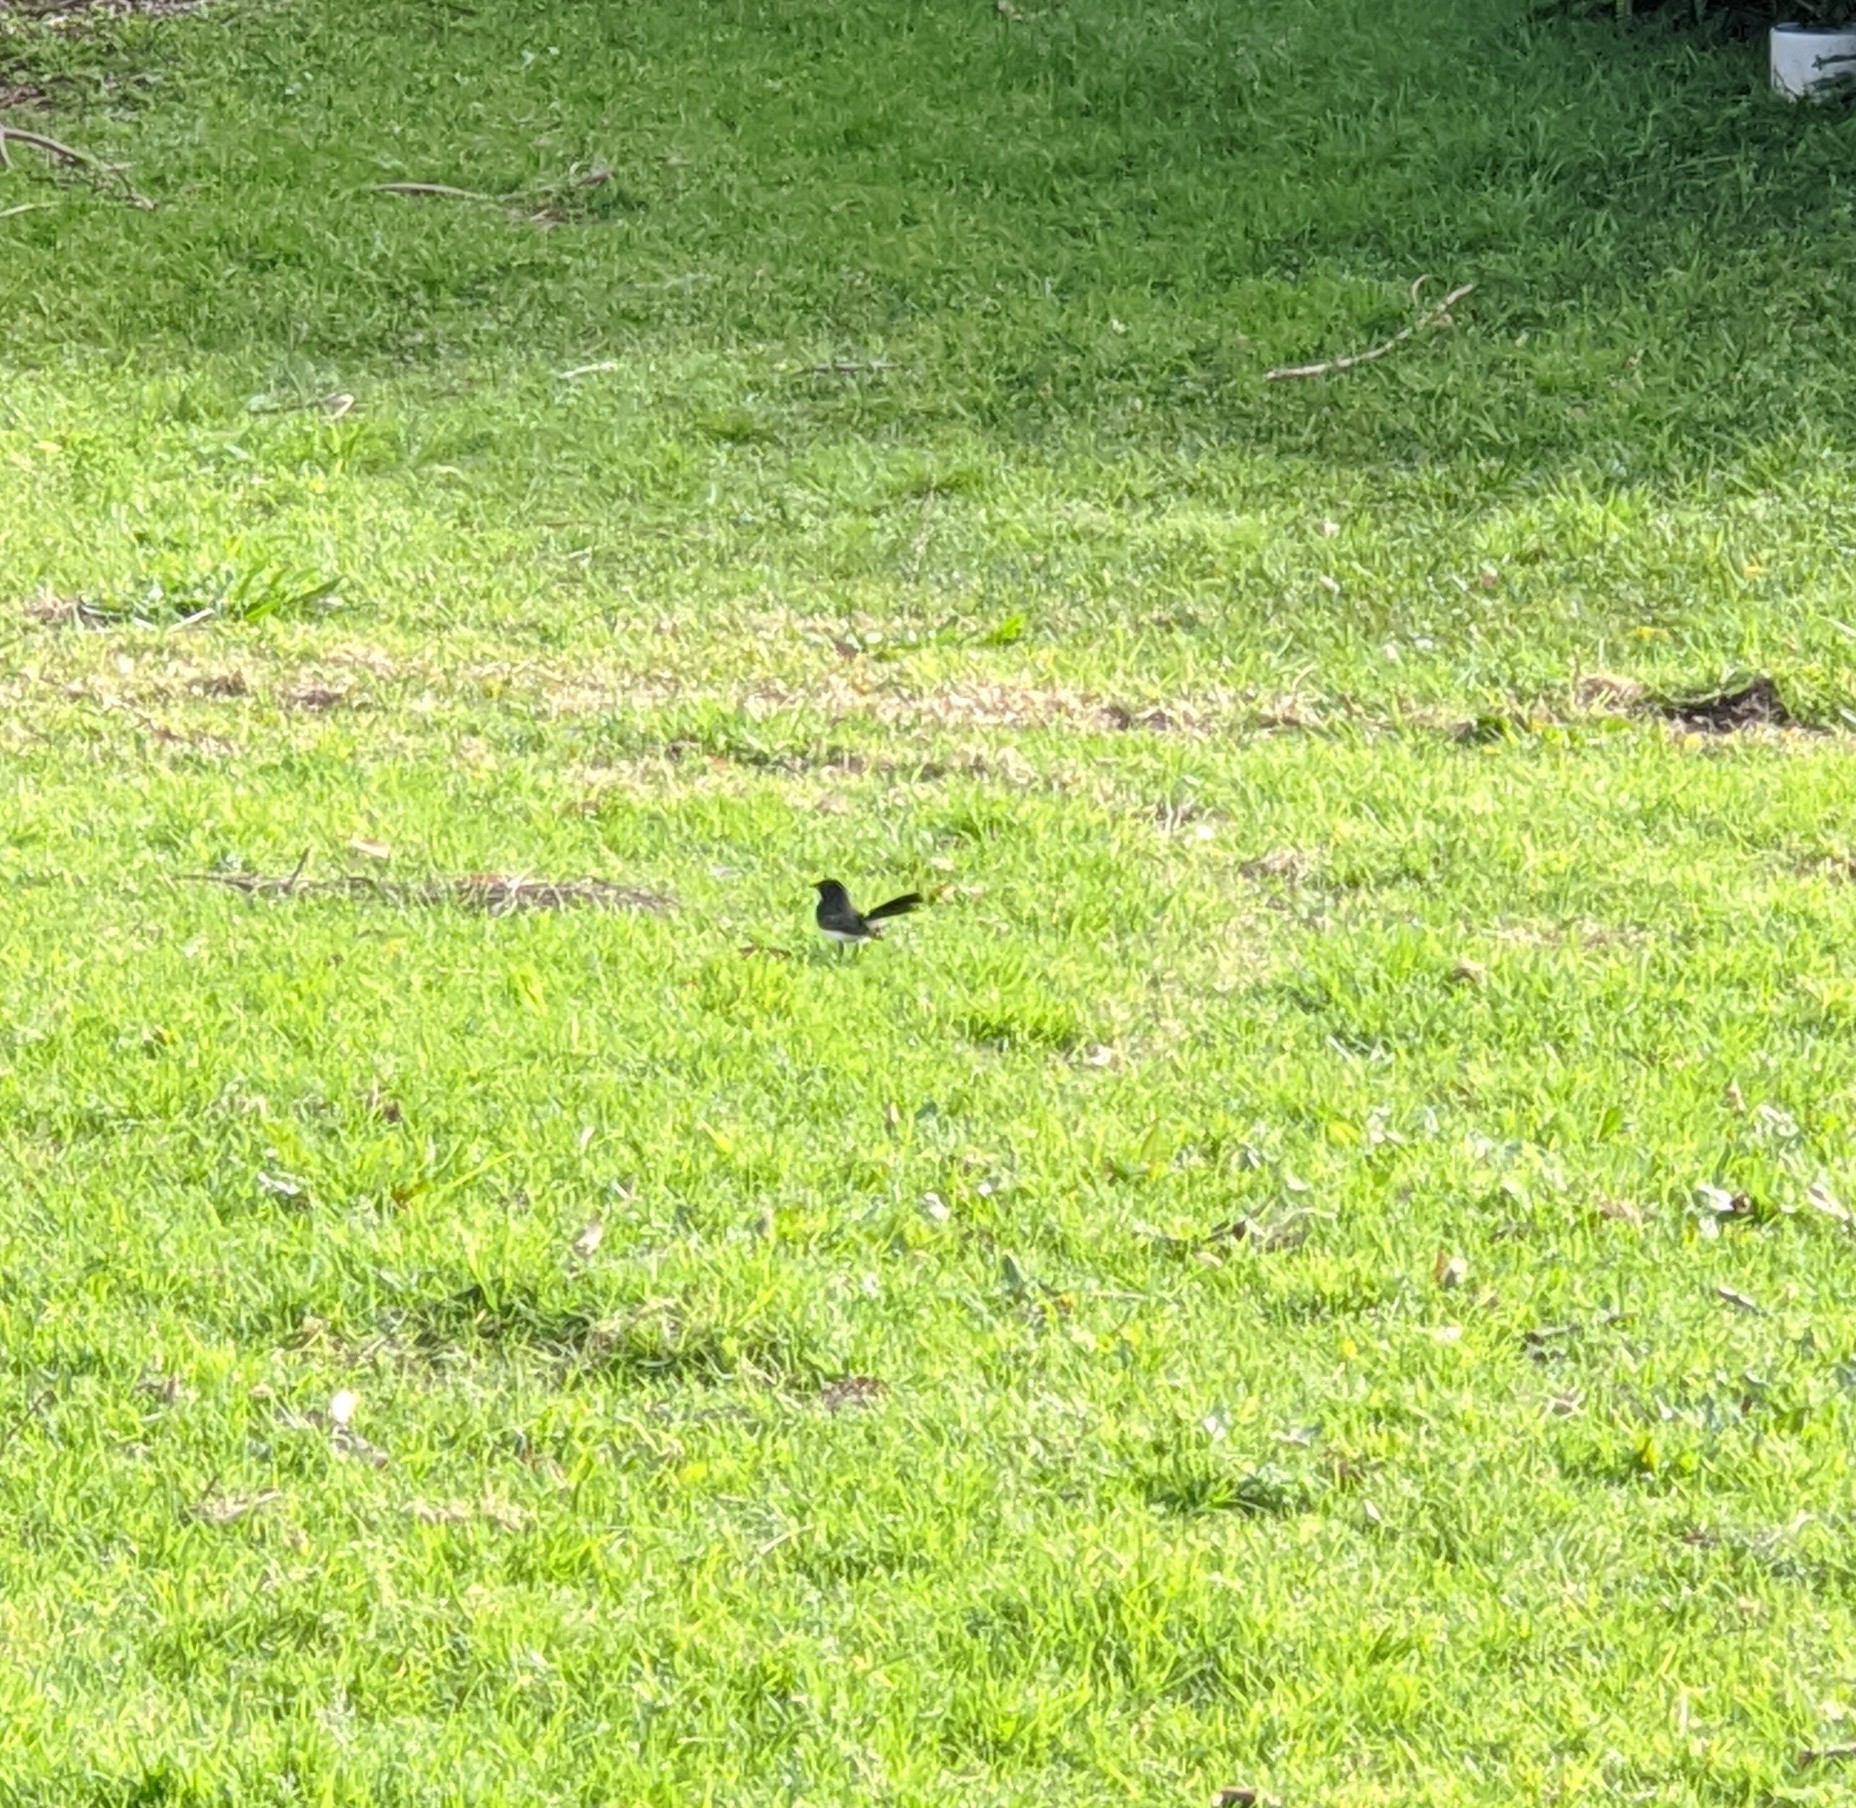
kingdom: Animalia
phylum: Chordata
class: Aves
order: Passeriformes
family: Rhipiduridae
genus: Rhipidura
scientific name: Rhipidura leucophrys
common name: Willie wagtail
